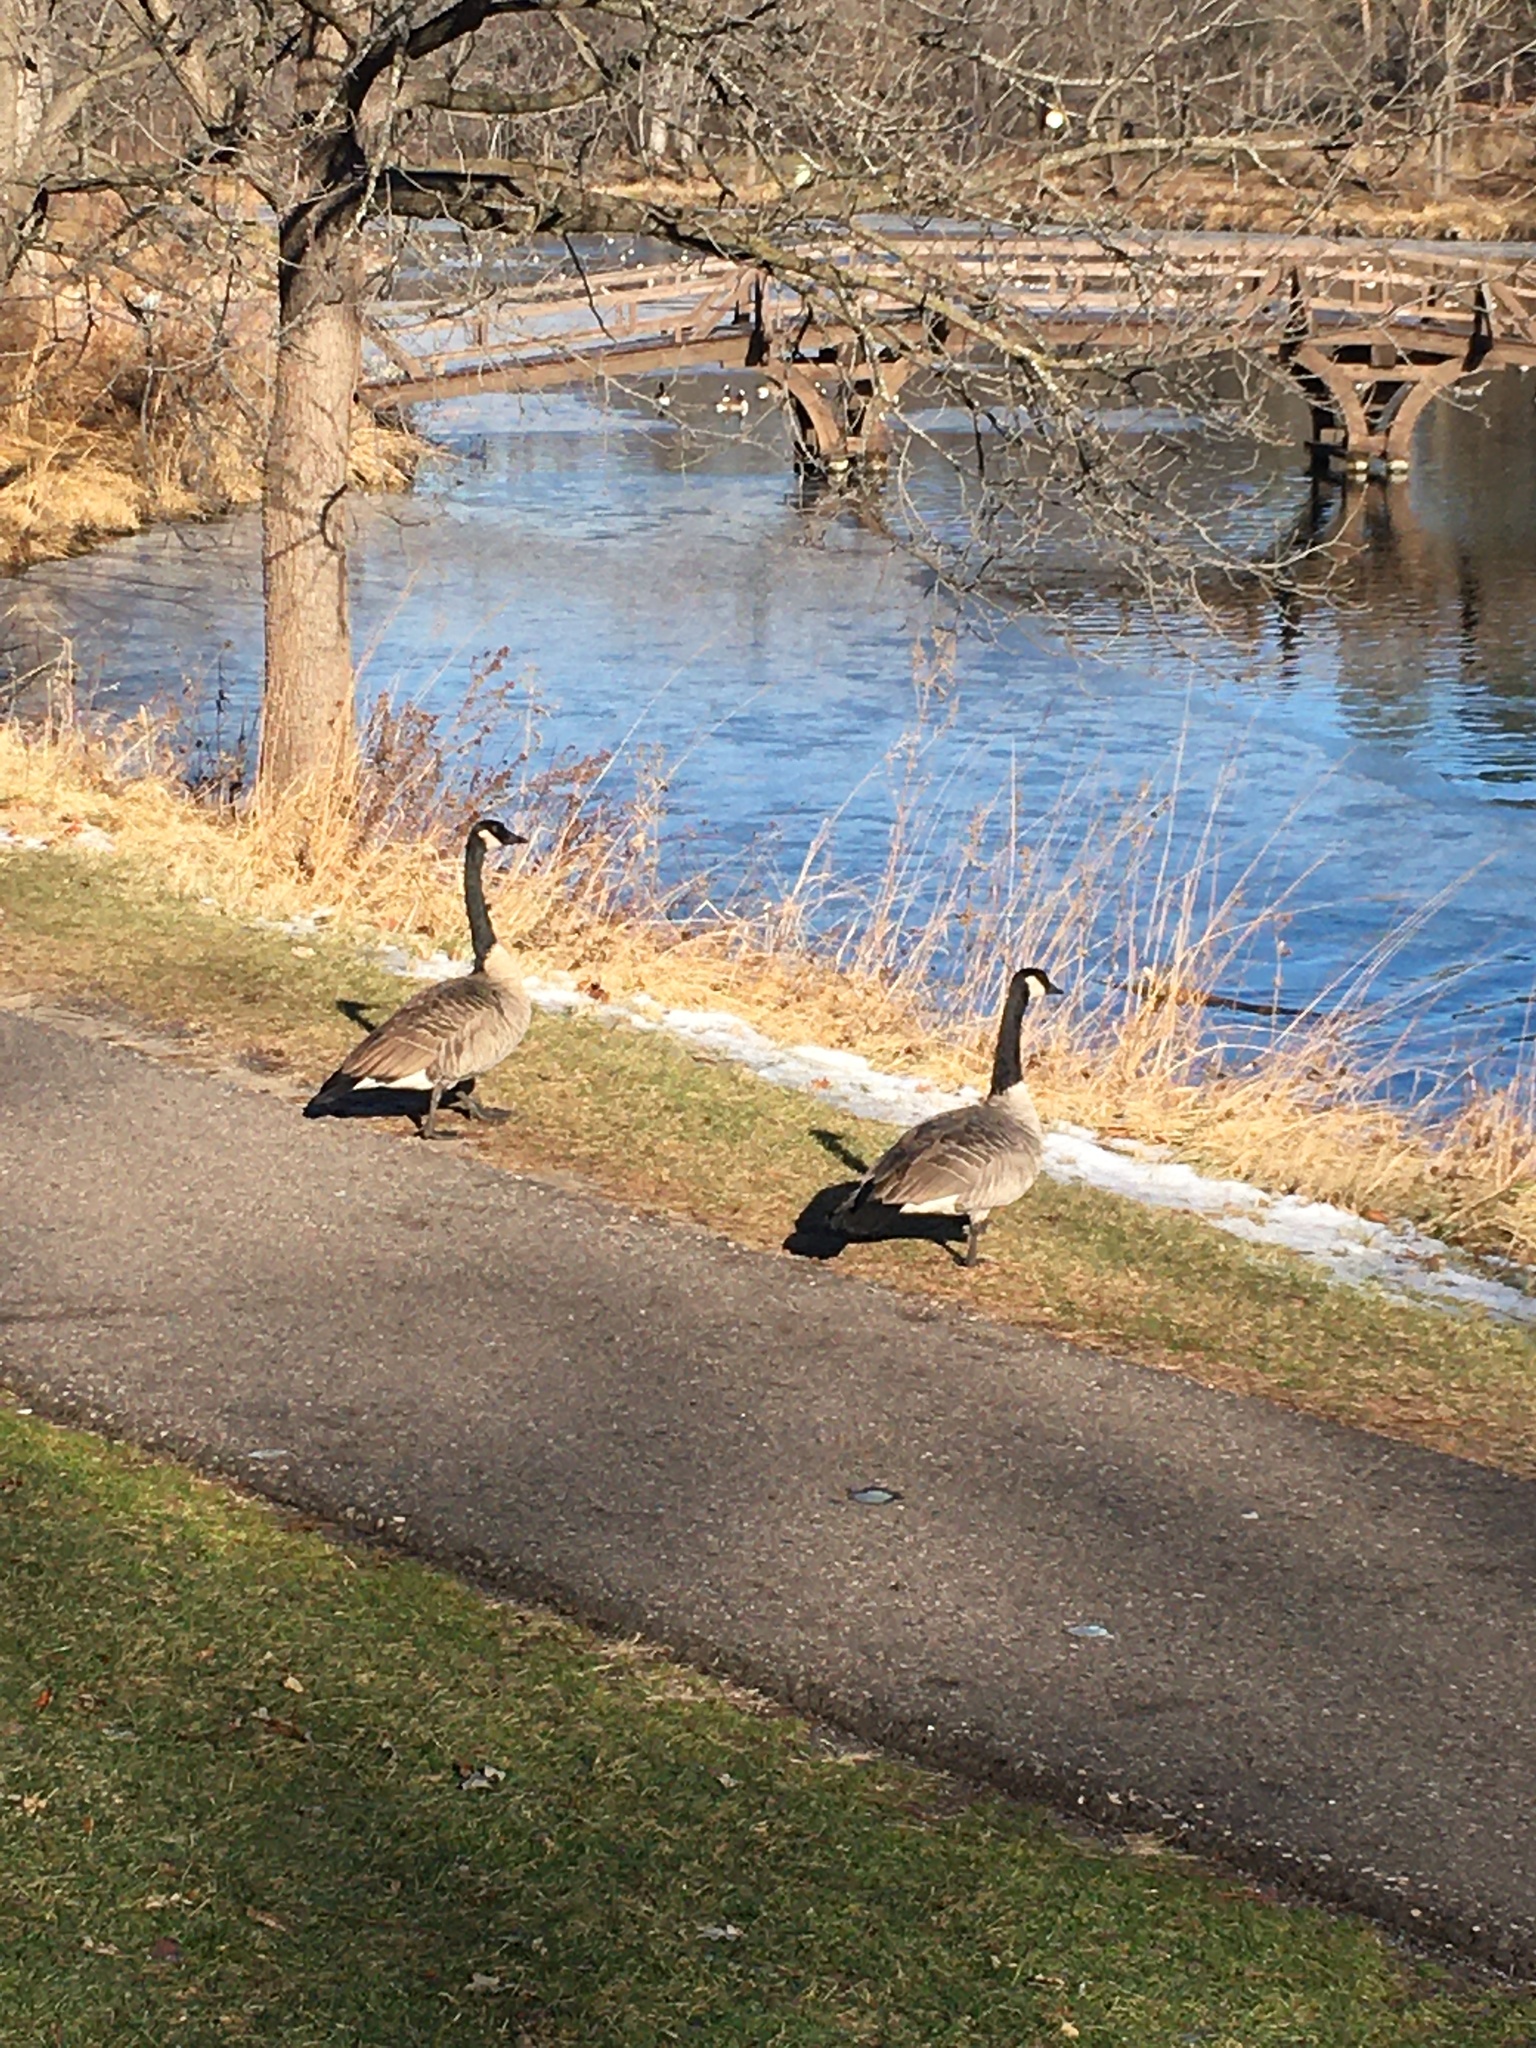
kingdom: Animalia
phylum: Chordata
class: Aves
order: Anseriformes
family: Anatidae
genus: Branta
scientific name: Branta canadensis
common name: Canada goose
